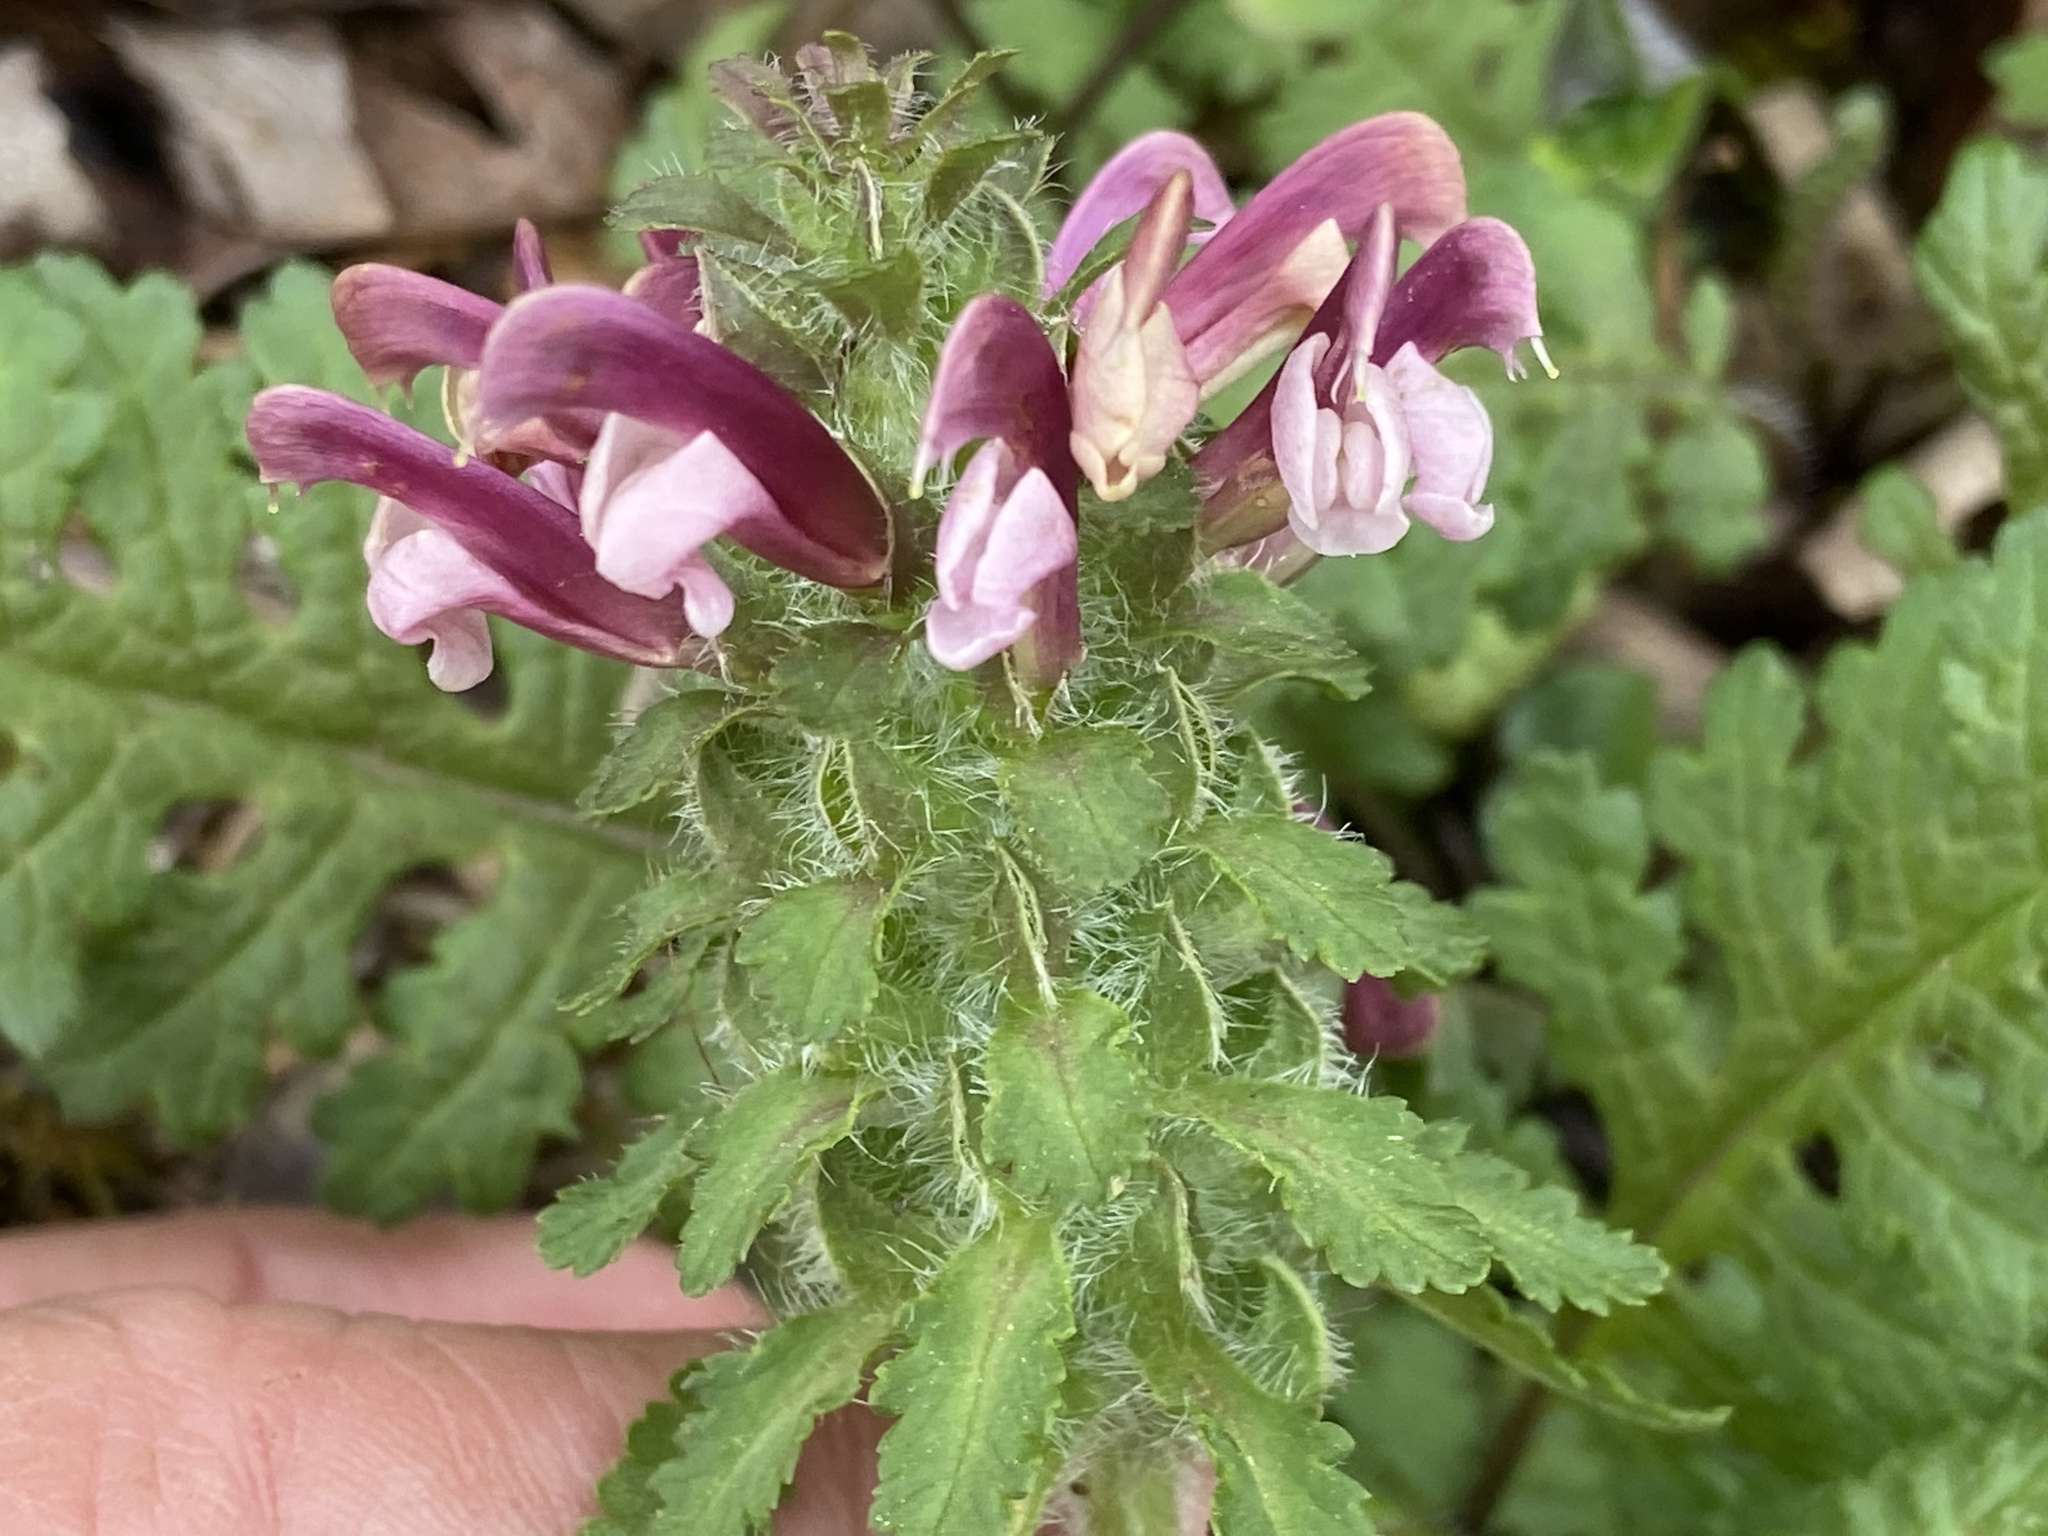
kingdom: Plantae
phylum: Tracheophyta
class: Magnoliopsida
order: Lamiales
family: Orobanchaceae
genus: Pedicularis
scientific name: Pedicularis canadensis
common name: Early lousewort
